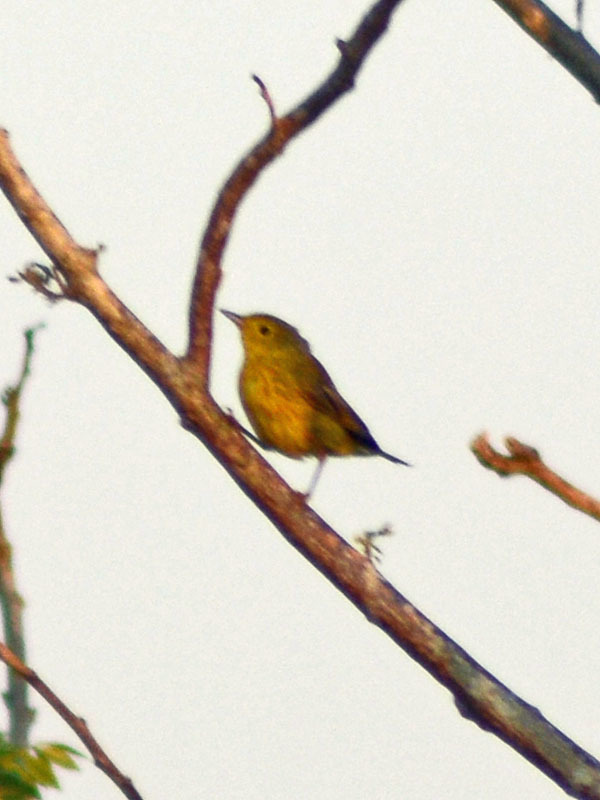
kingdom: Animalia
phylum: Chordata
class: Aves
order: Passeriformes
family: Parulidae
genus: Setophaga
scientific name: Setophaga petechia
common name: Yellow warbler
